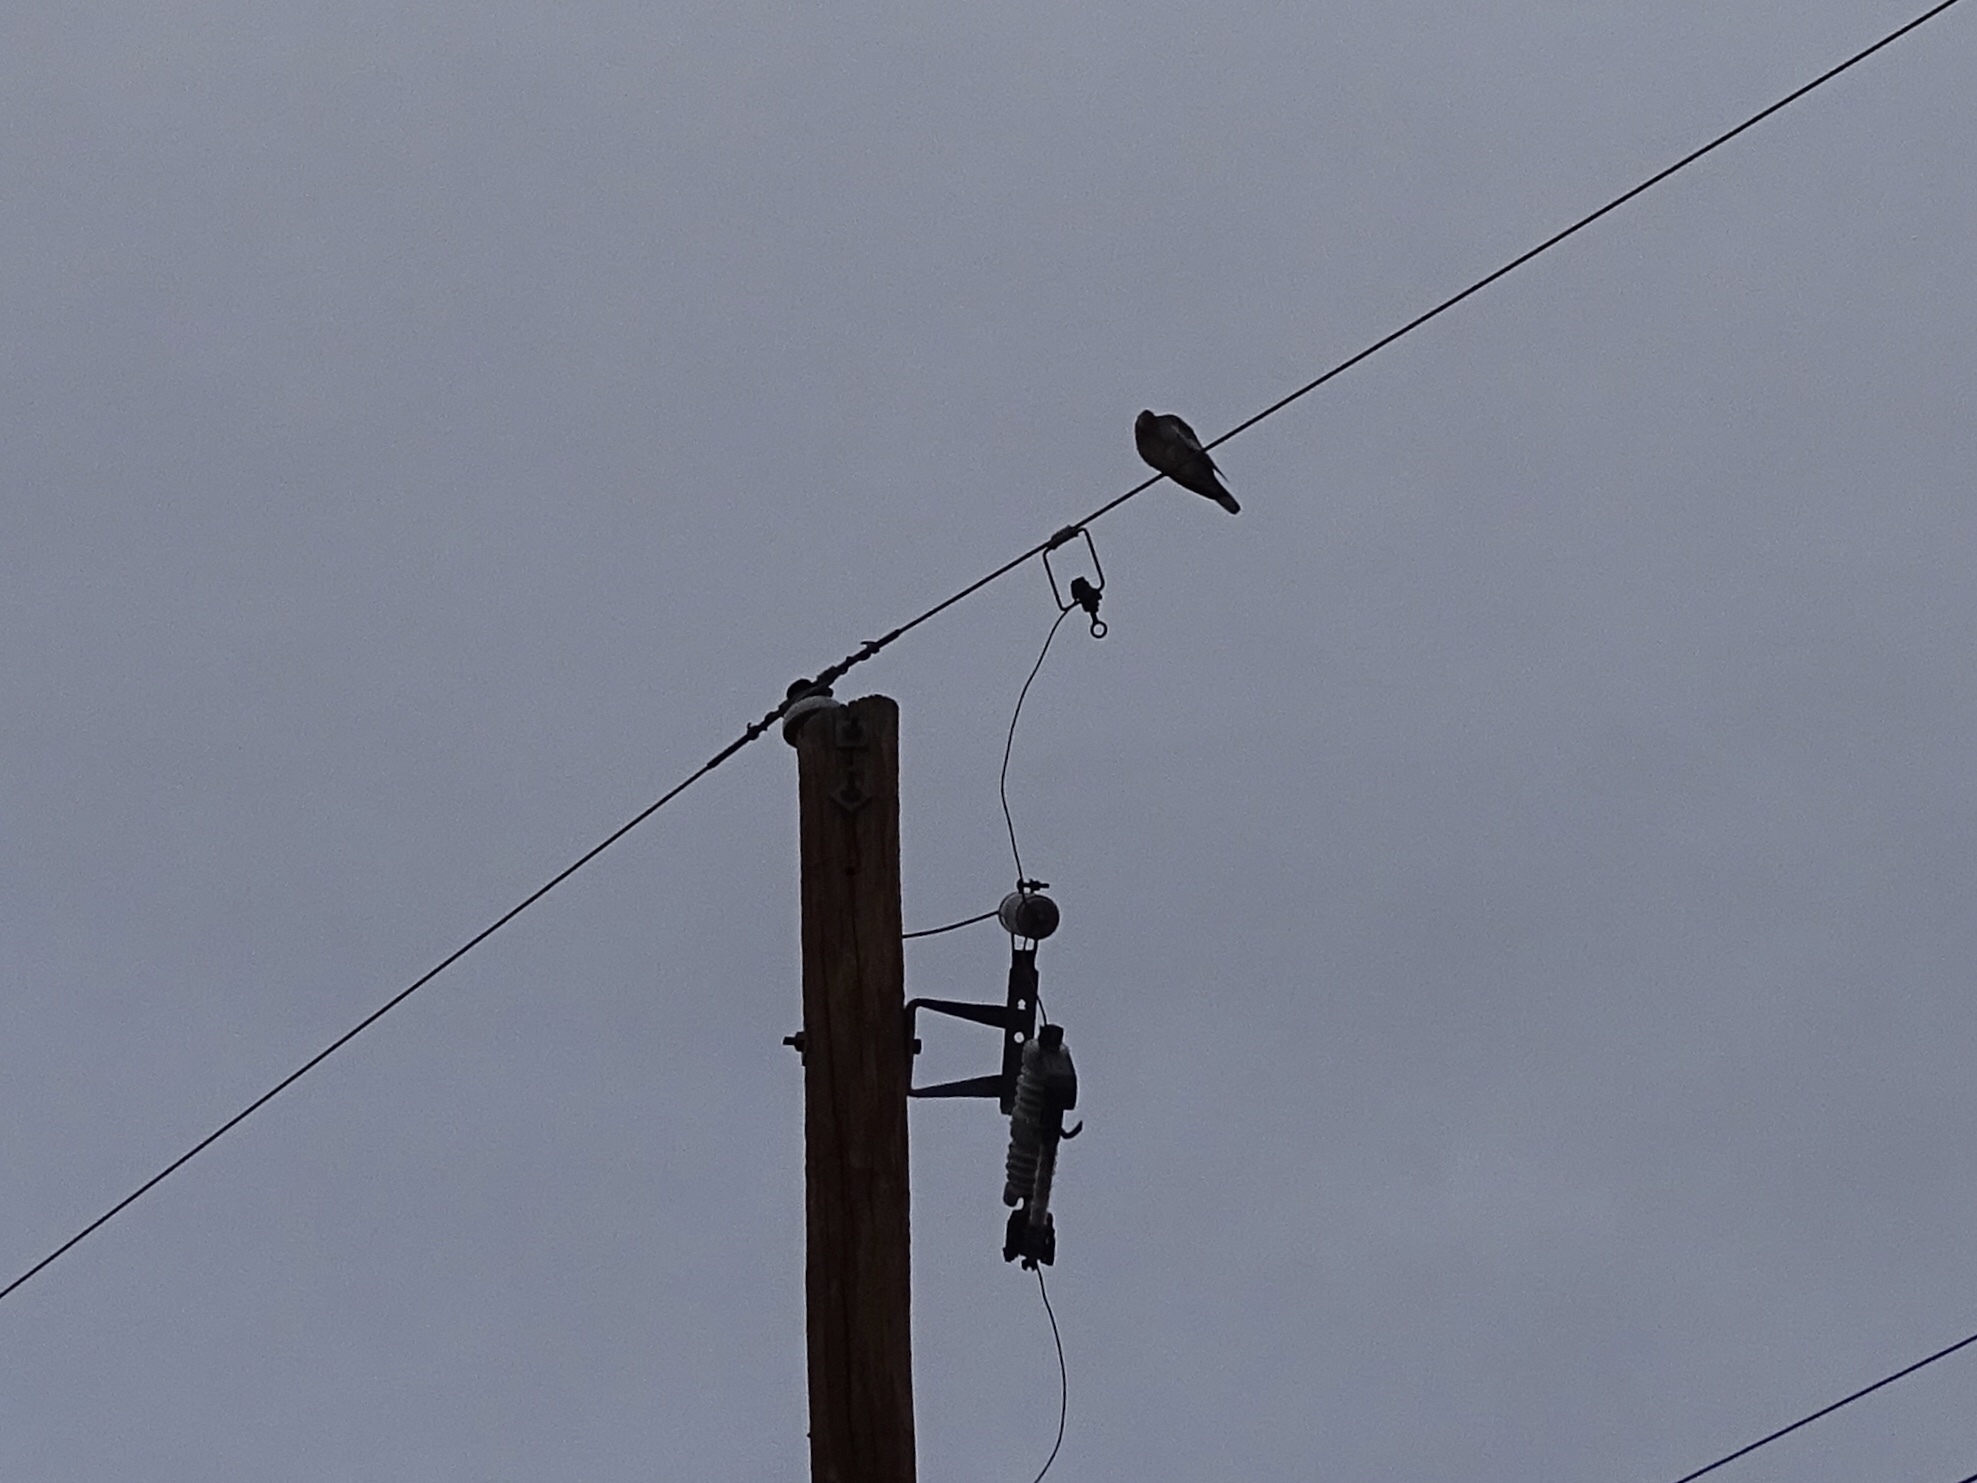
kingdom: Animalia
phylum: Chordata
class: Aves
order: Columbiformes
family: Columbidae
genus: Zenaida
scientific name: Zenaida asiatica
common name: White-winged dove
